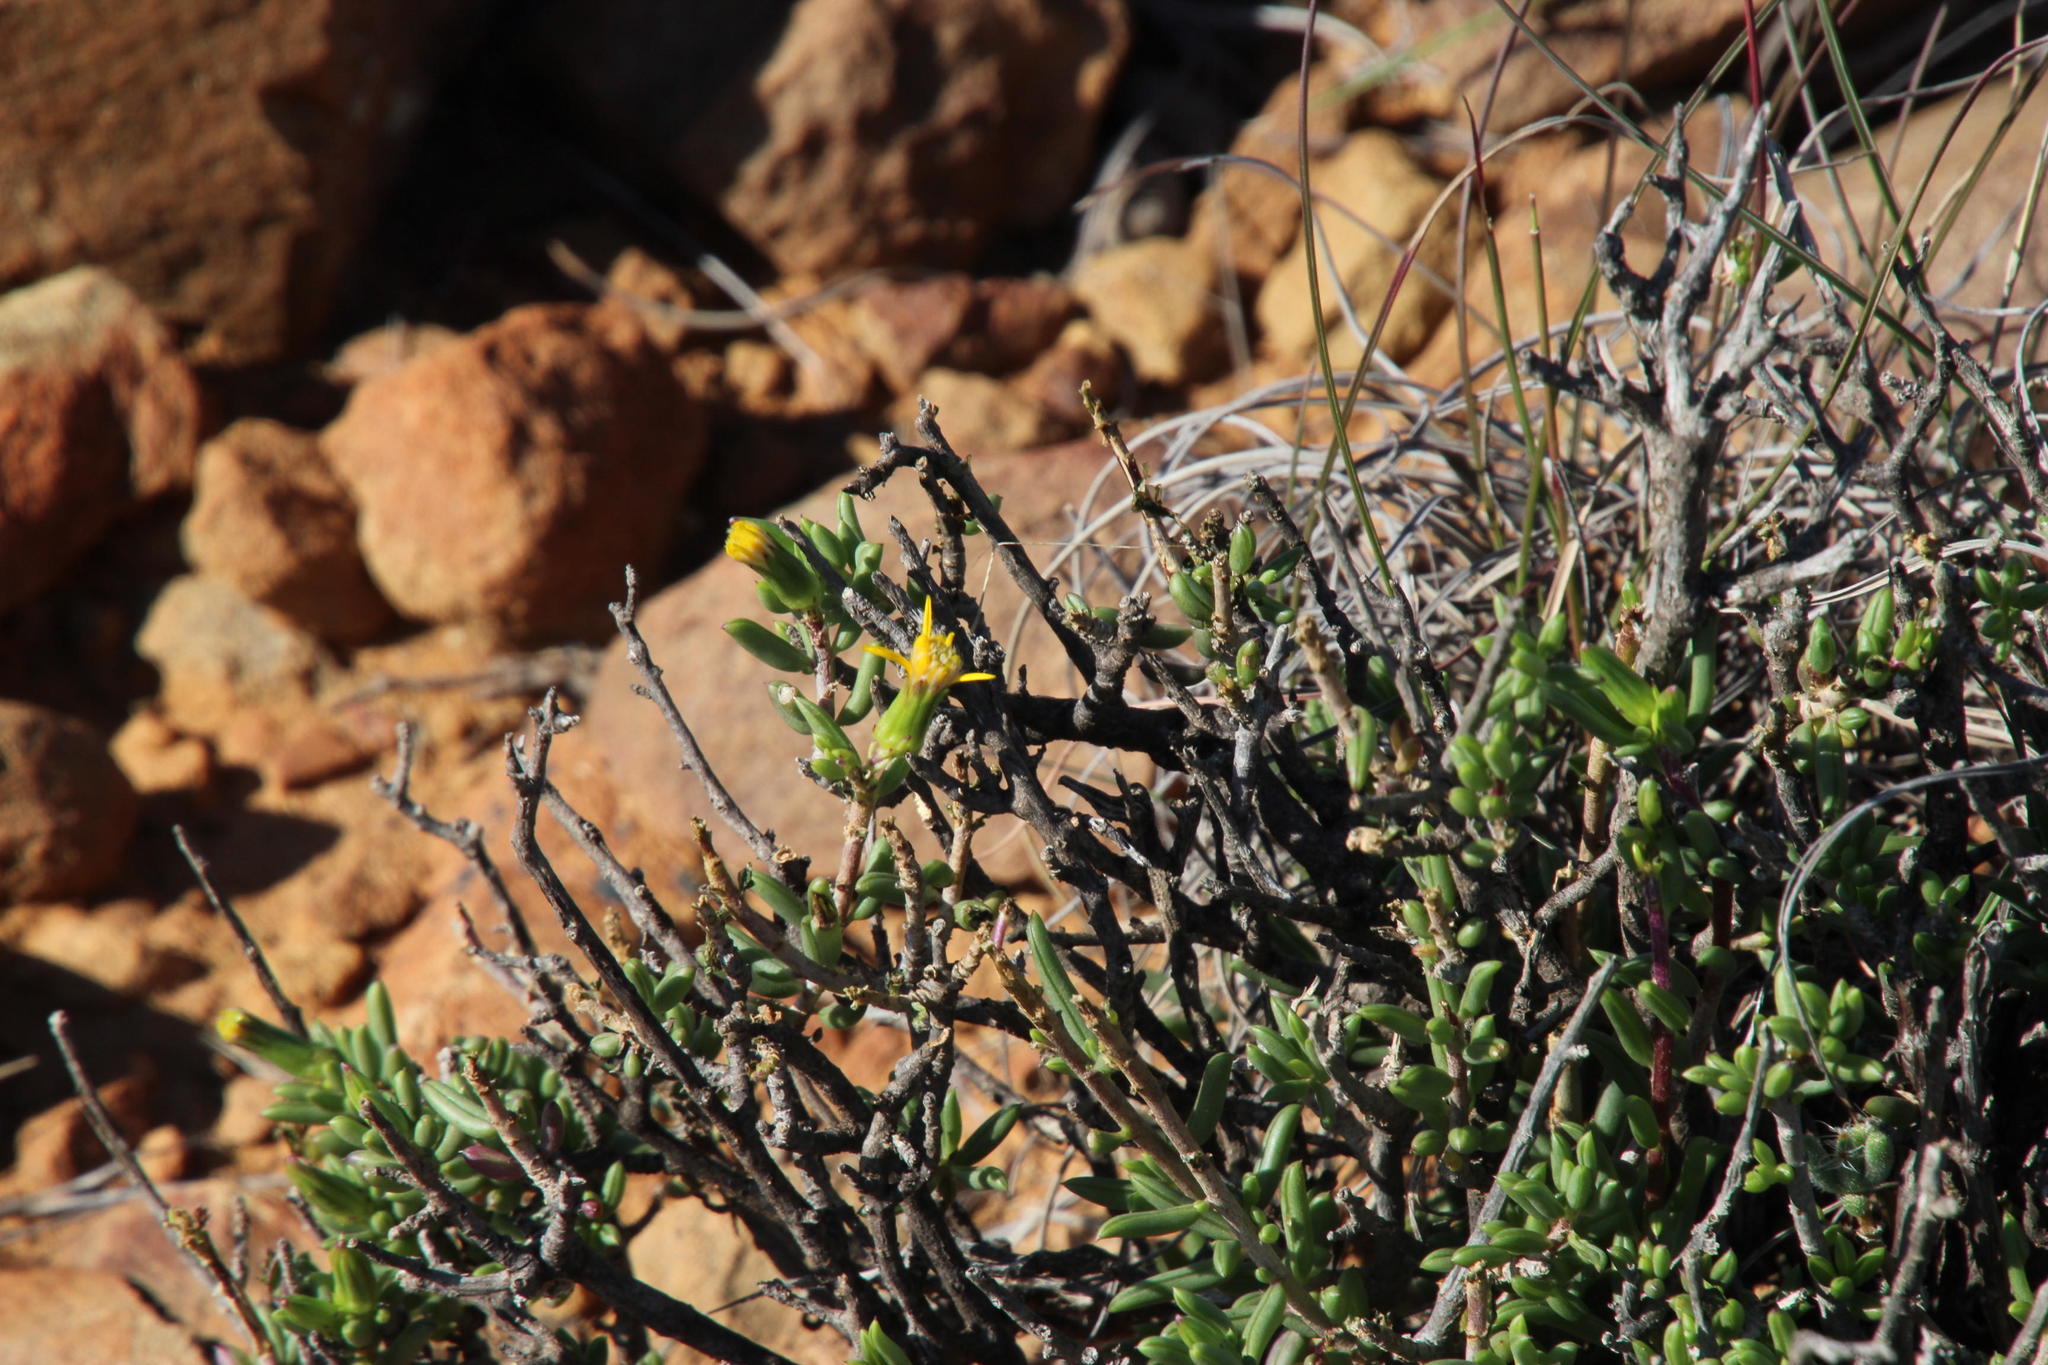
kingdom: Plantae
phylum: Tracheophyta
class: Magnoliopsida
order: Asterales
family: Asteraceae
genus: Senecio
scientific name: Senecio acutifolius
